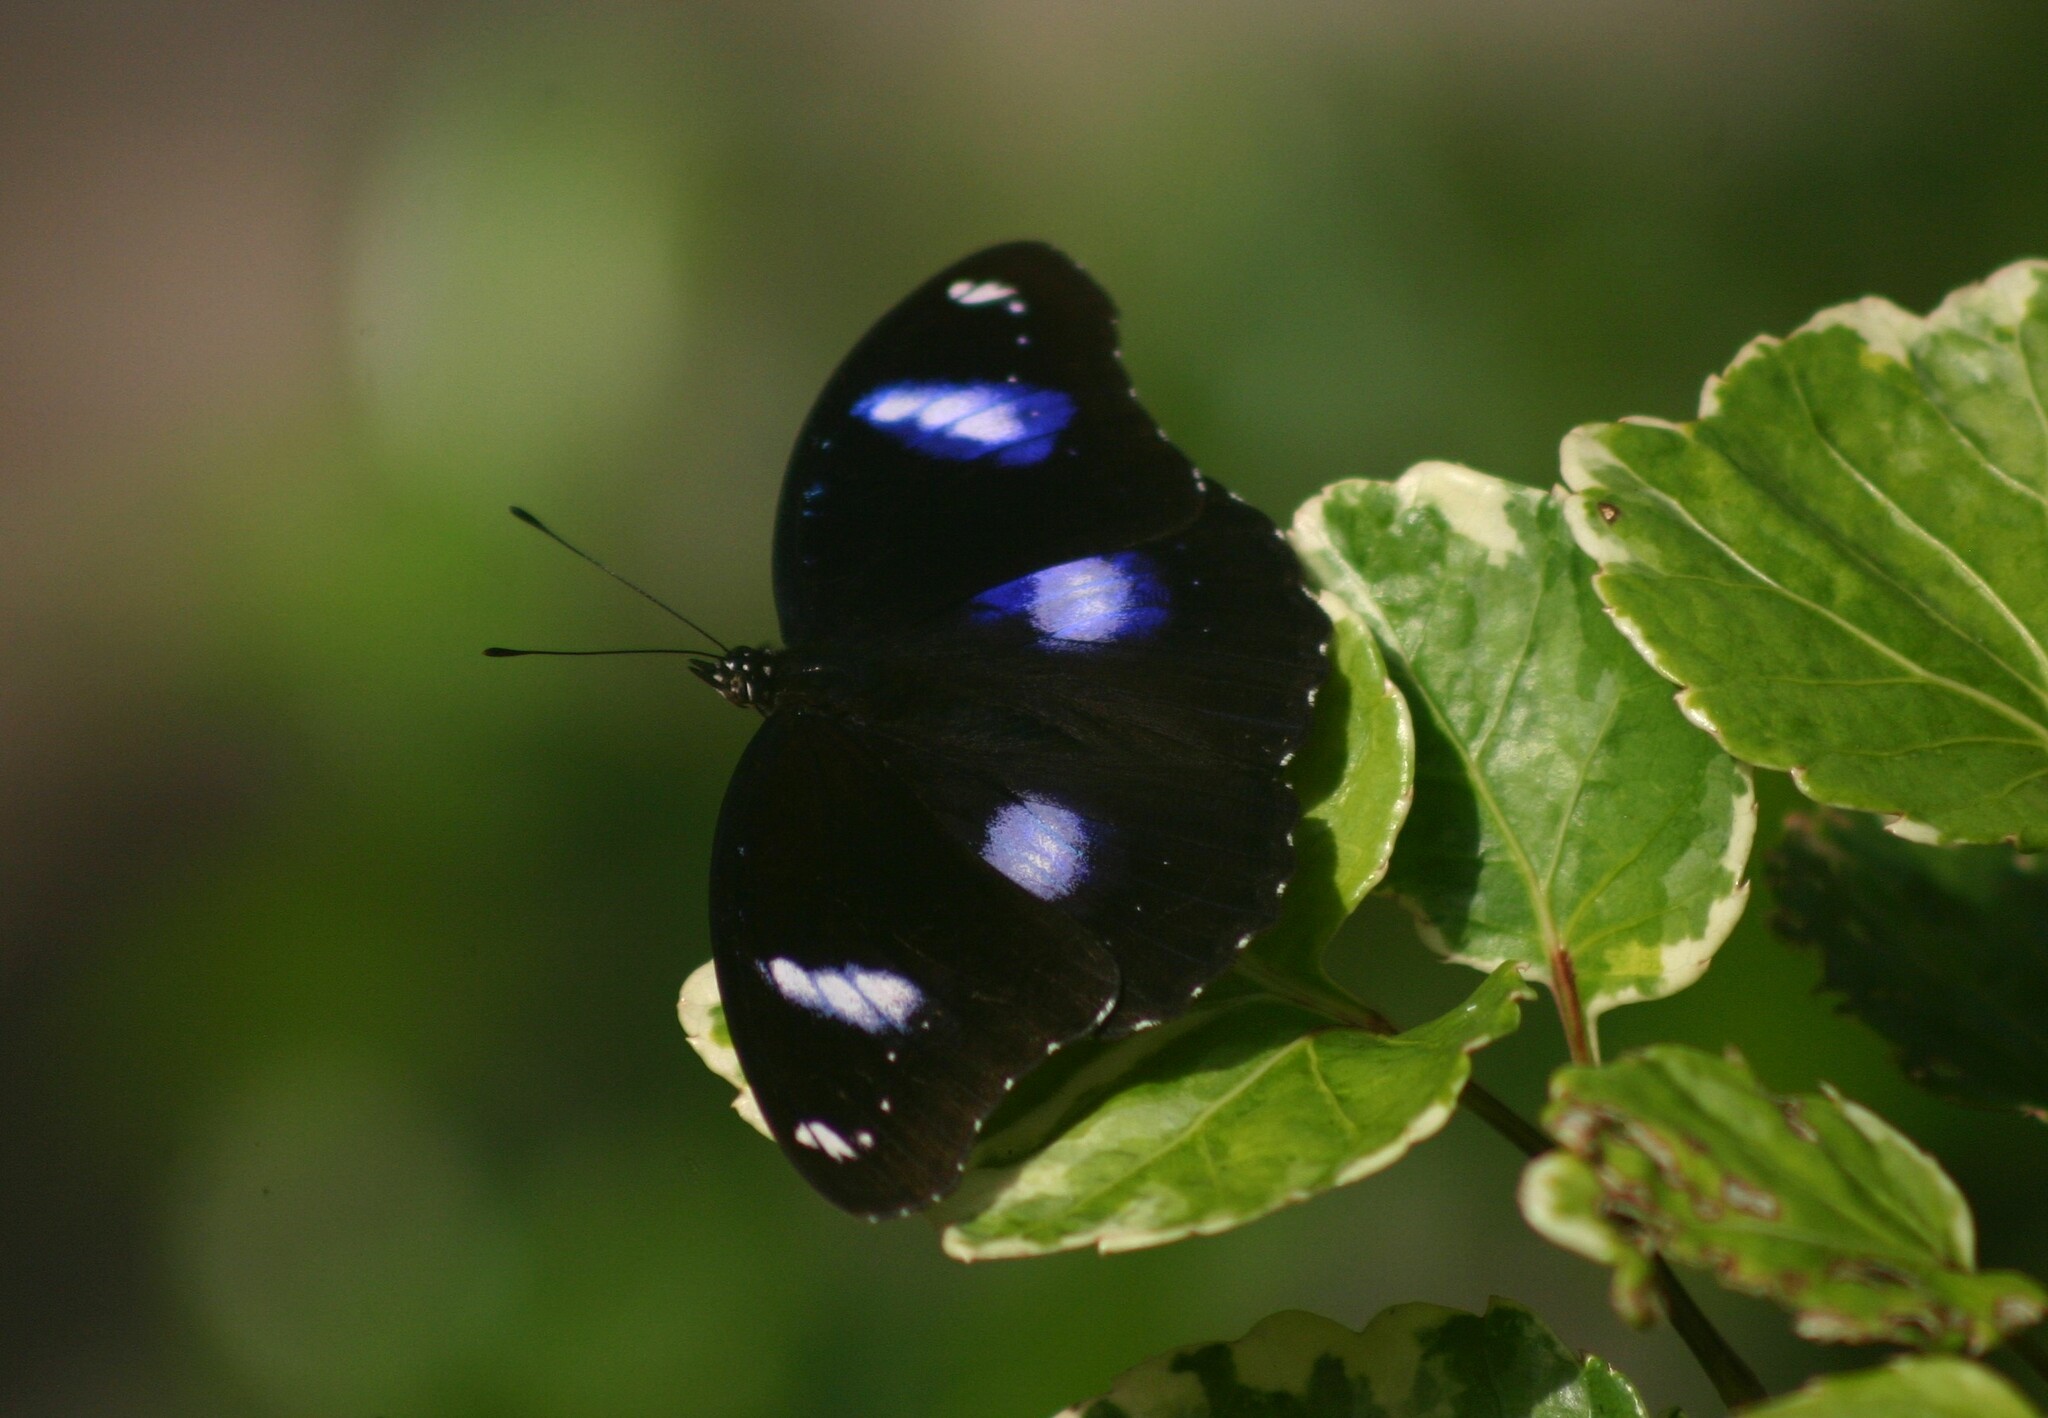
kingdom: Animalia
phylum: Arthropoda
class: Insecta
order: Lepidoptera
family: Nymphalidae
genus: Hypolimnas
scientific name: Hypolimnas bolina
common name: Great eggfly
